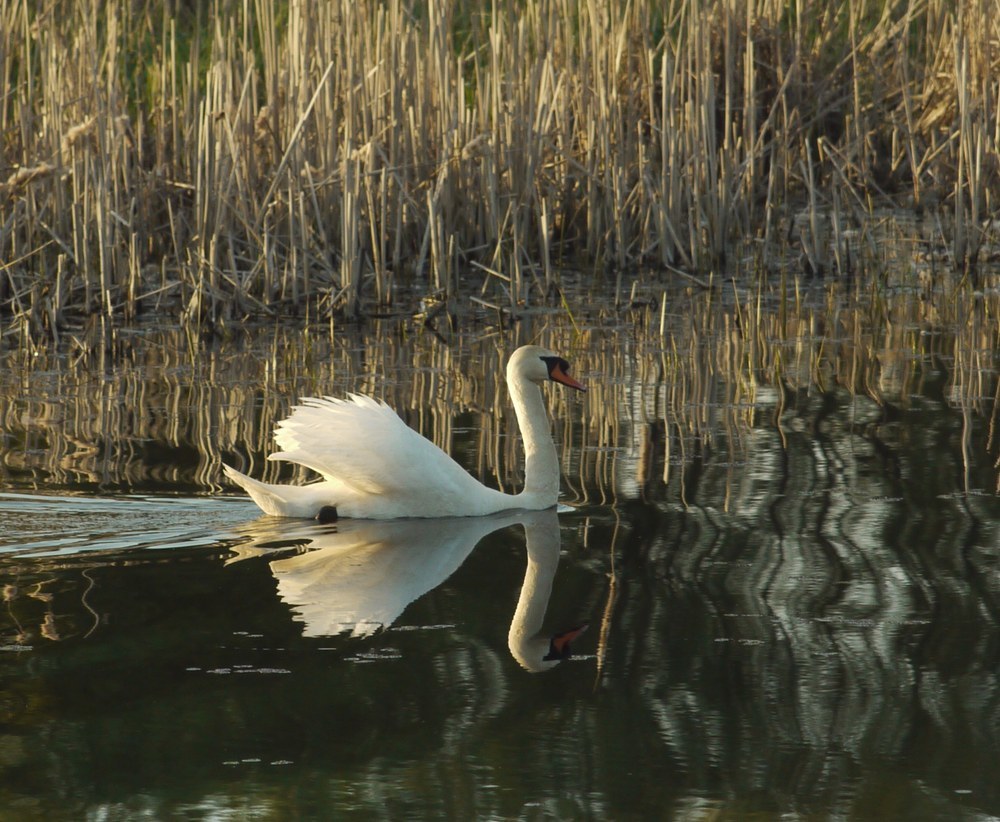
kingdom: Animalia
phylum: Chordata
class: Aves
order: Anseriformes
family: Anatidae
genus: Cygnus
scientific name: Cygnus olor
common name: Mute swan
